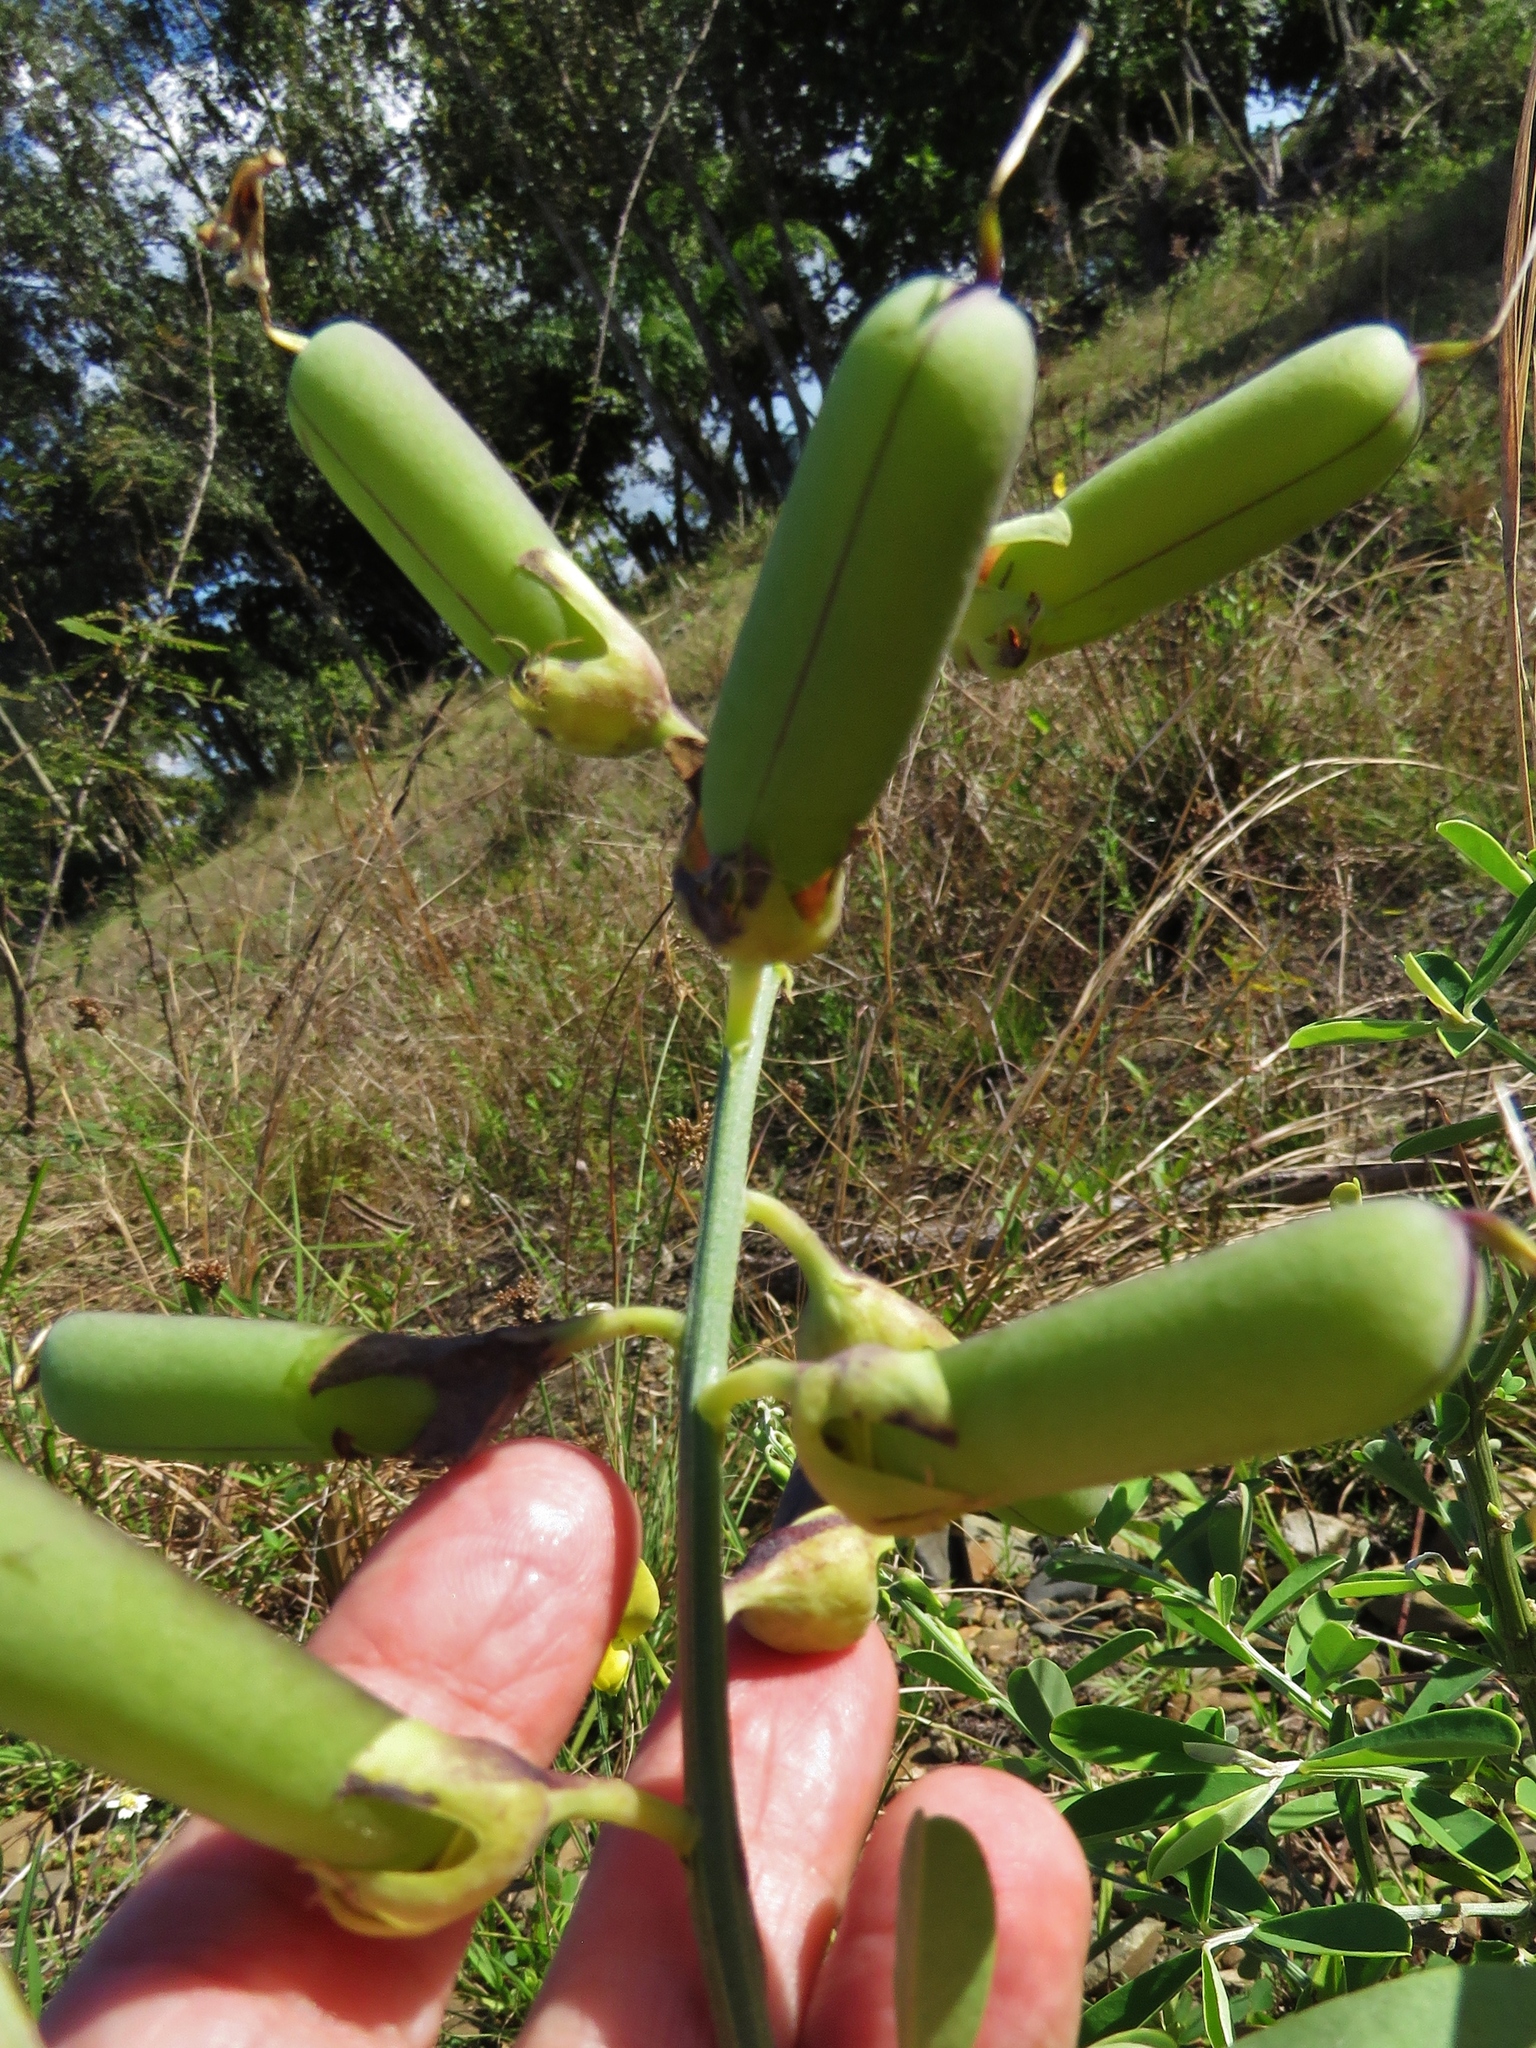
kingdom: Plantae
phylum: Tracheophyta
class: Magnoliopsida
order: Fabales
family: Fabaceae
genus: Crotalaria
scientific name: Crotalaria retusa
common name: Rattleweed
